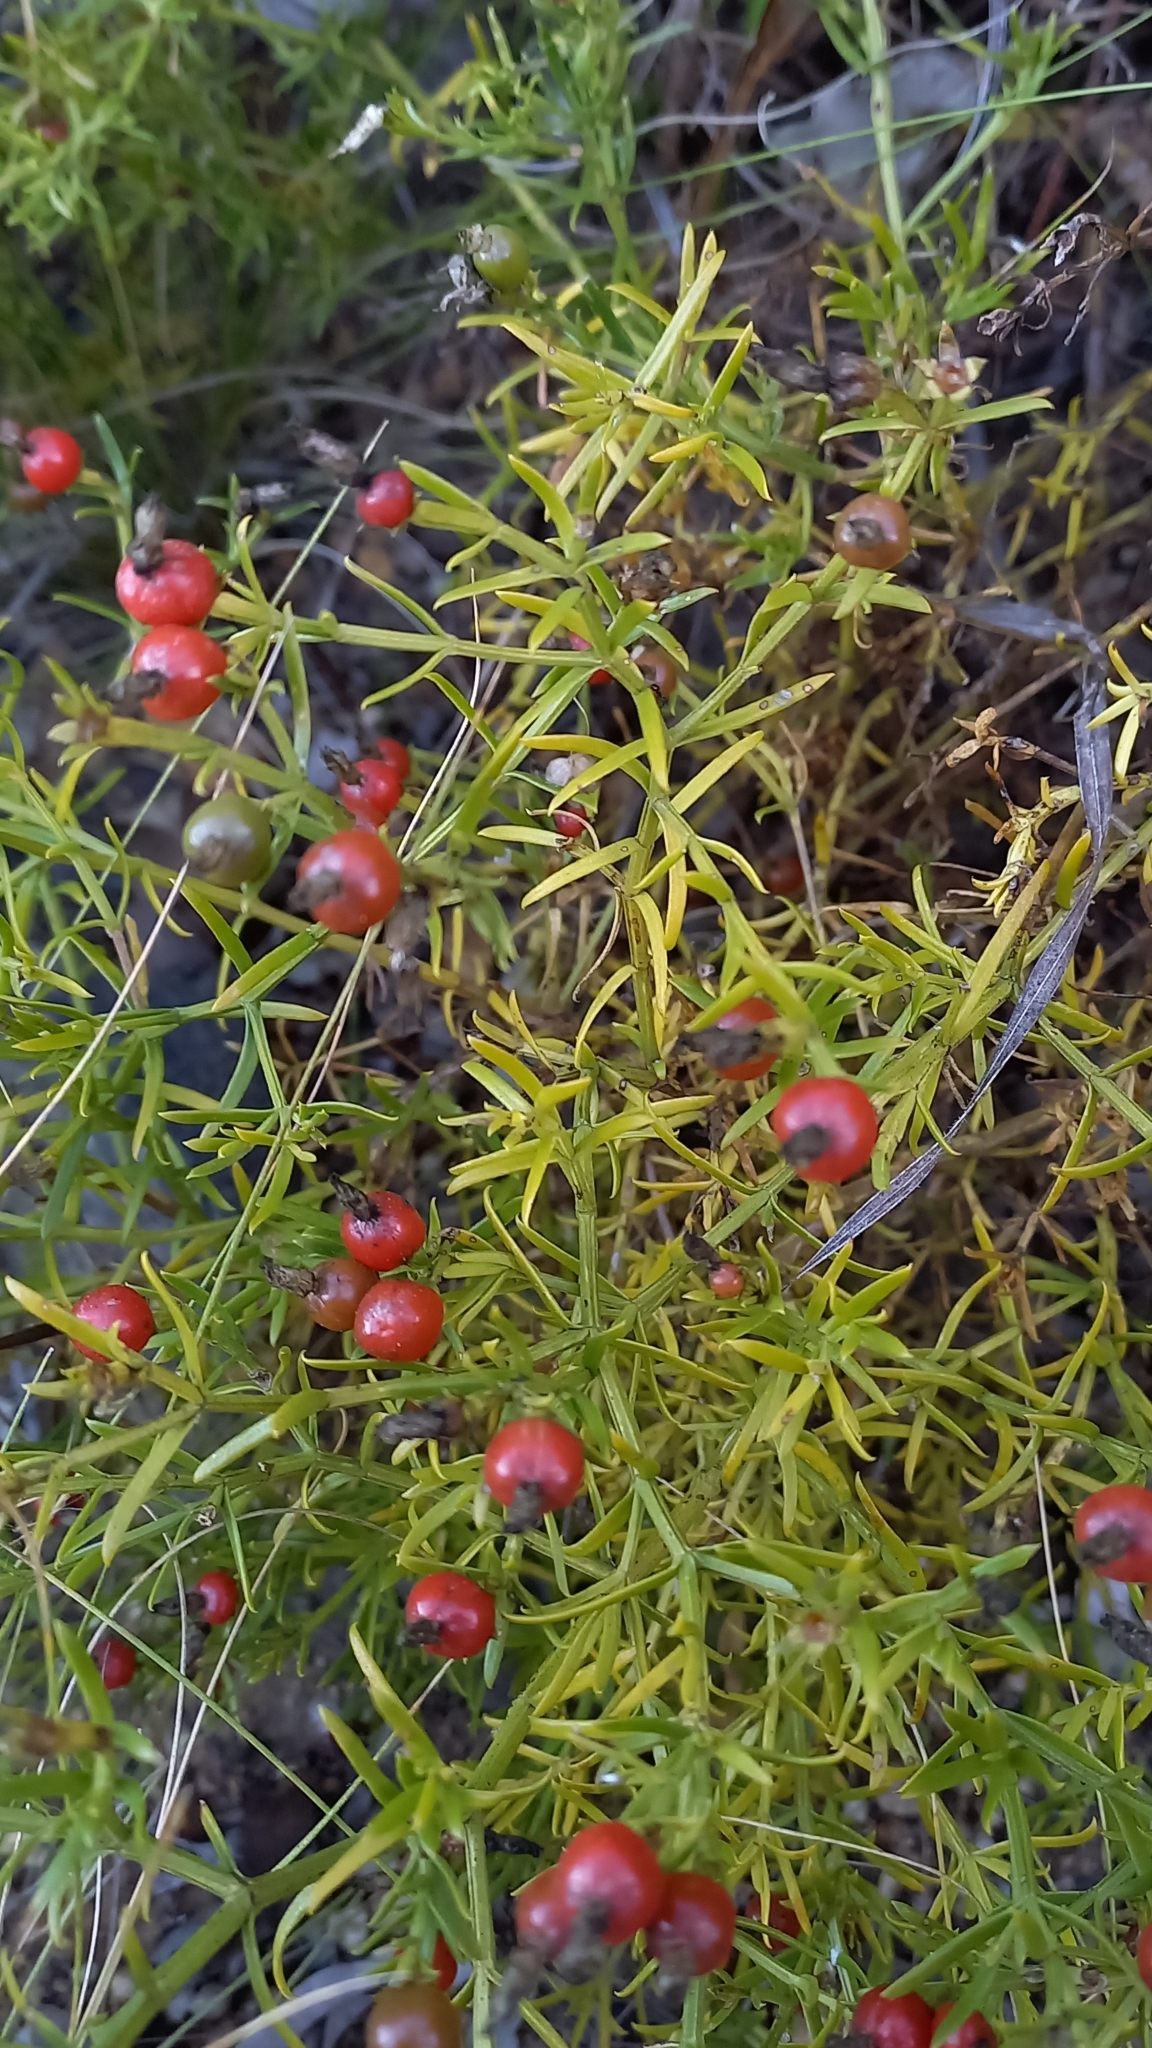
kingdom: Plantae
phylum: Tracheophyta
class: Magnoliopsida
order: Gentianales
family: Gentianaceae
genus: Chironia
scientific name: Chironia baccifera
